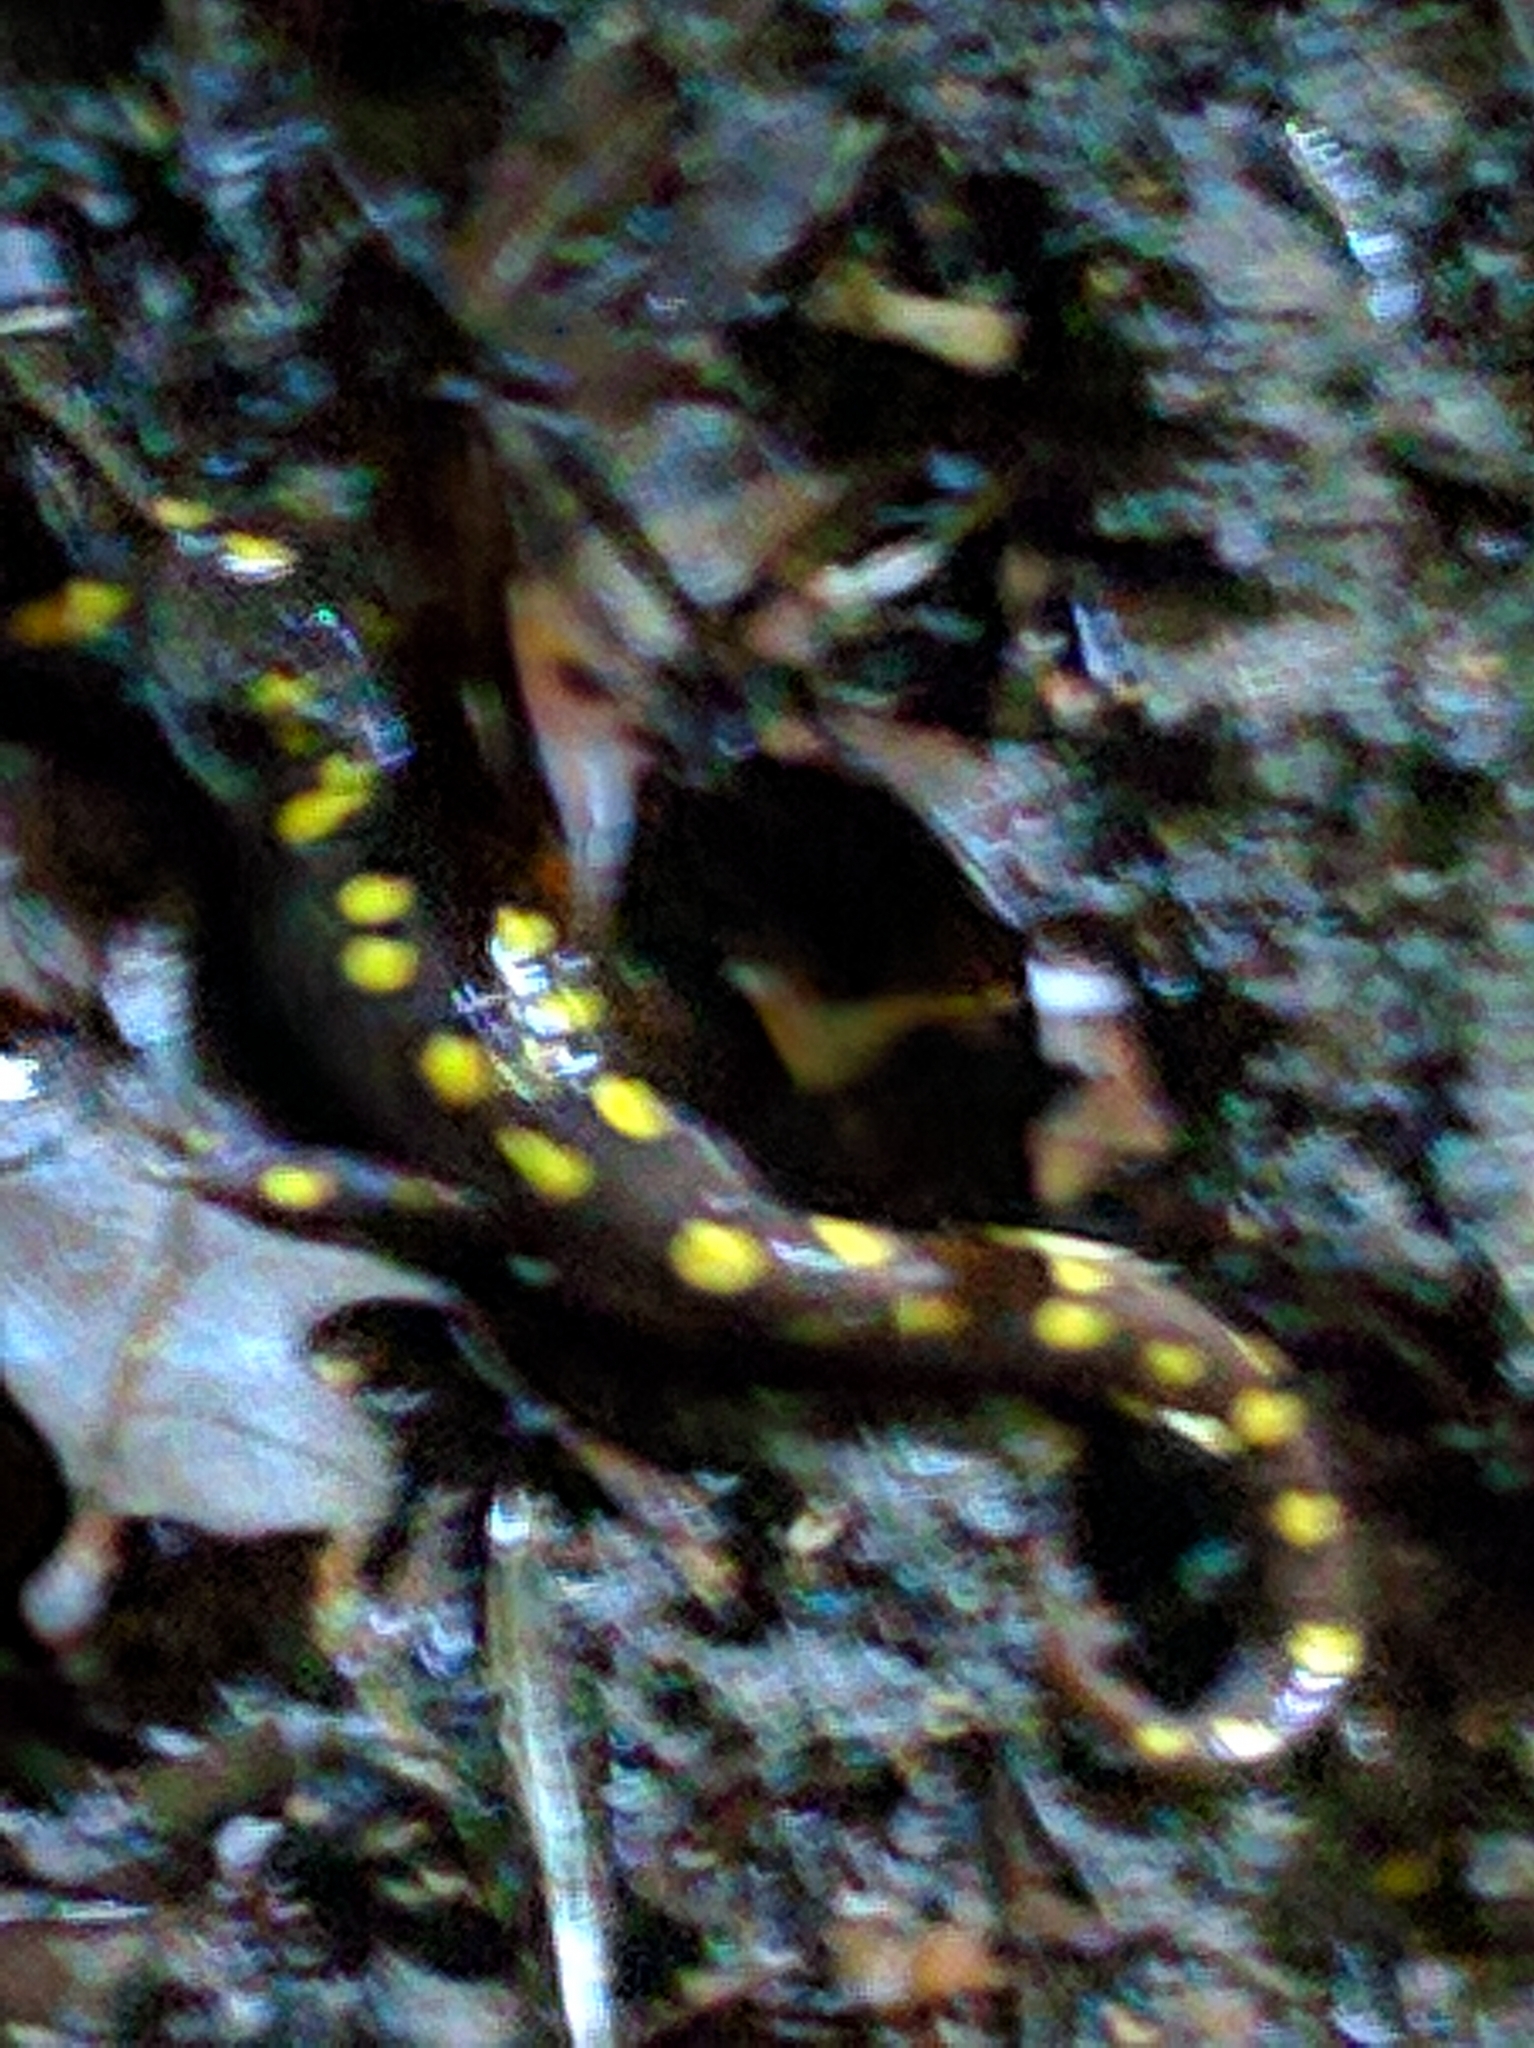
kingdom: Animalia
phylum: Chordata
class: Amphibia
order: Caudata
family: Ambystomatidae
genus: Ambystoma
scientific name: Ambystoma maculatum
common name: Spotted salamander
